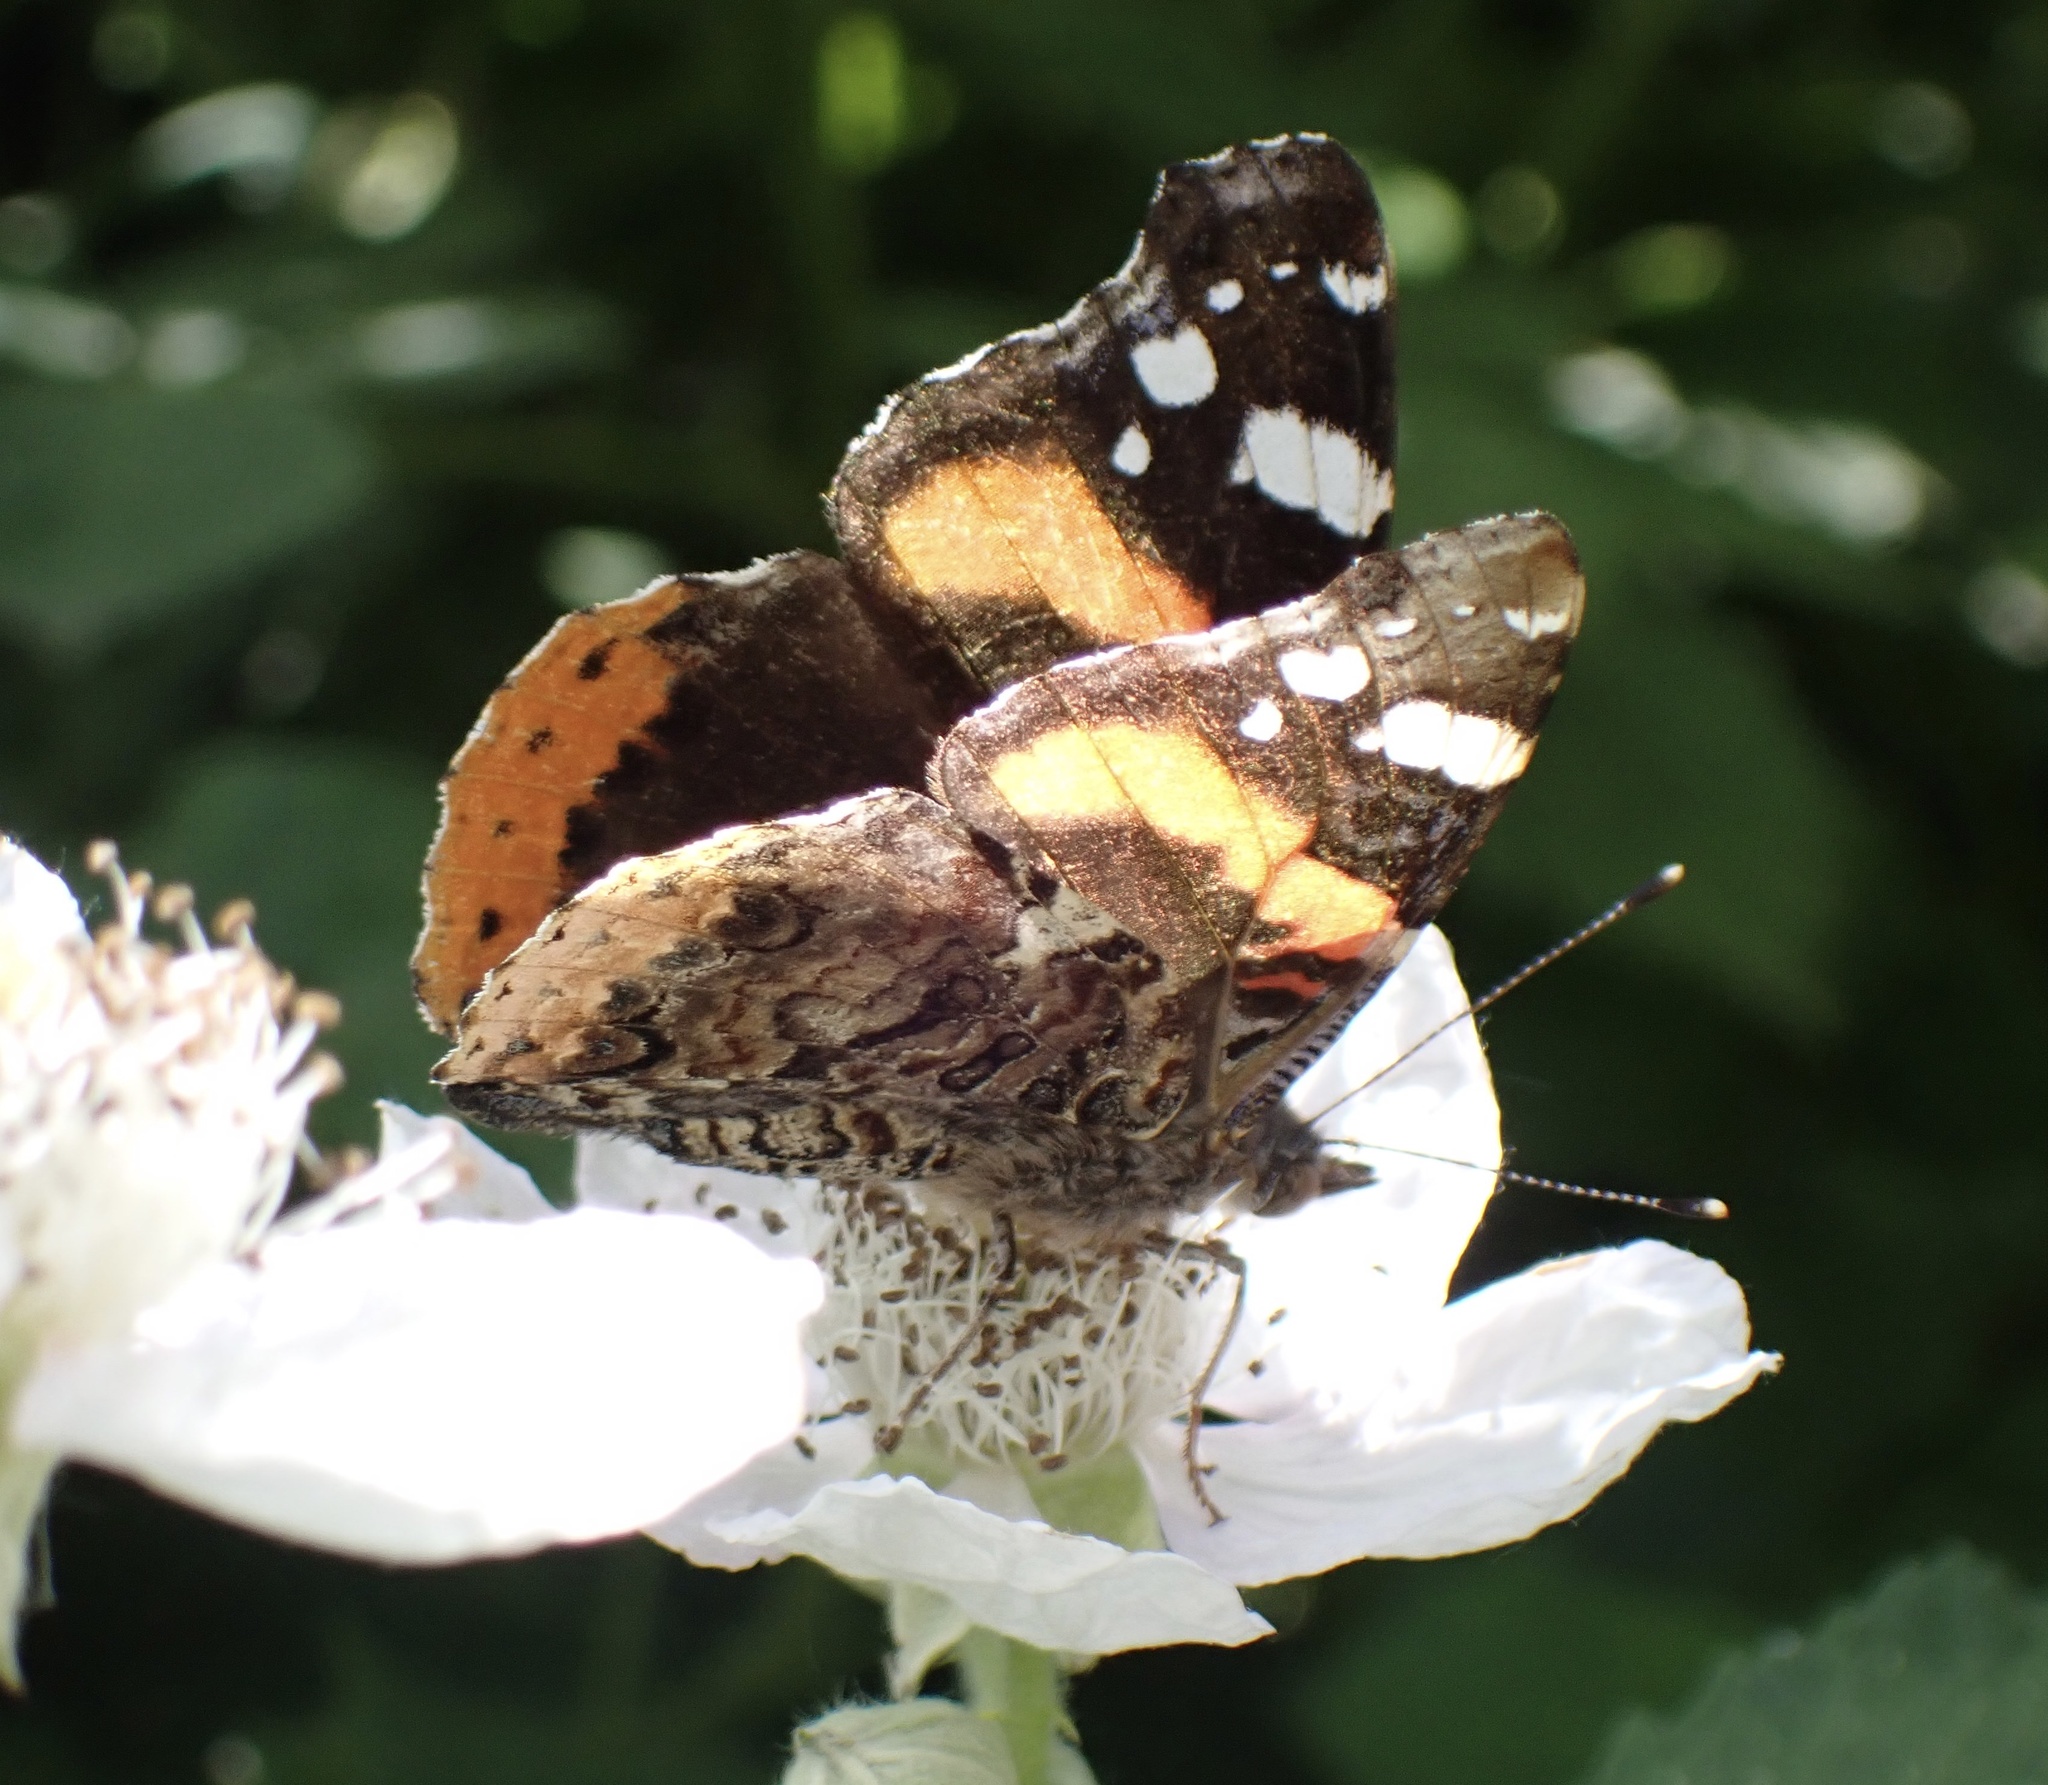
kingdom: Animalia
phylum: Arthropoda
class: Insecta
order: Lepidoptera
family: Nymphalidae
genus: Vanessa
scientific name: Vanessa atalanta
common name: Red admiral
